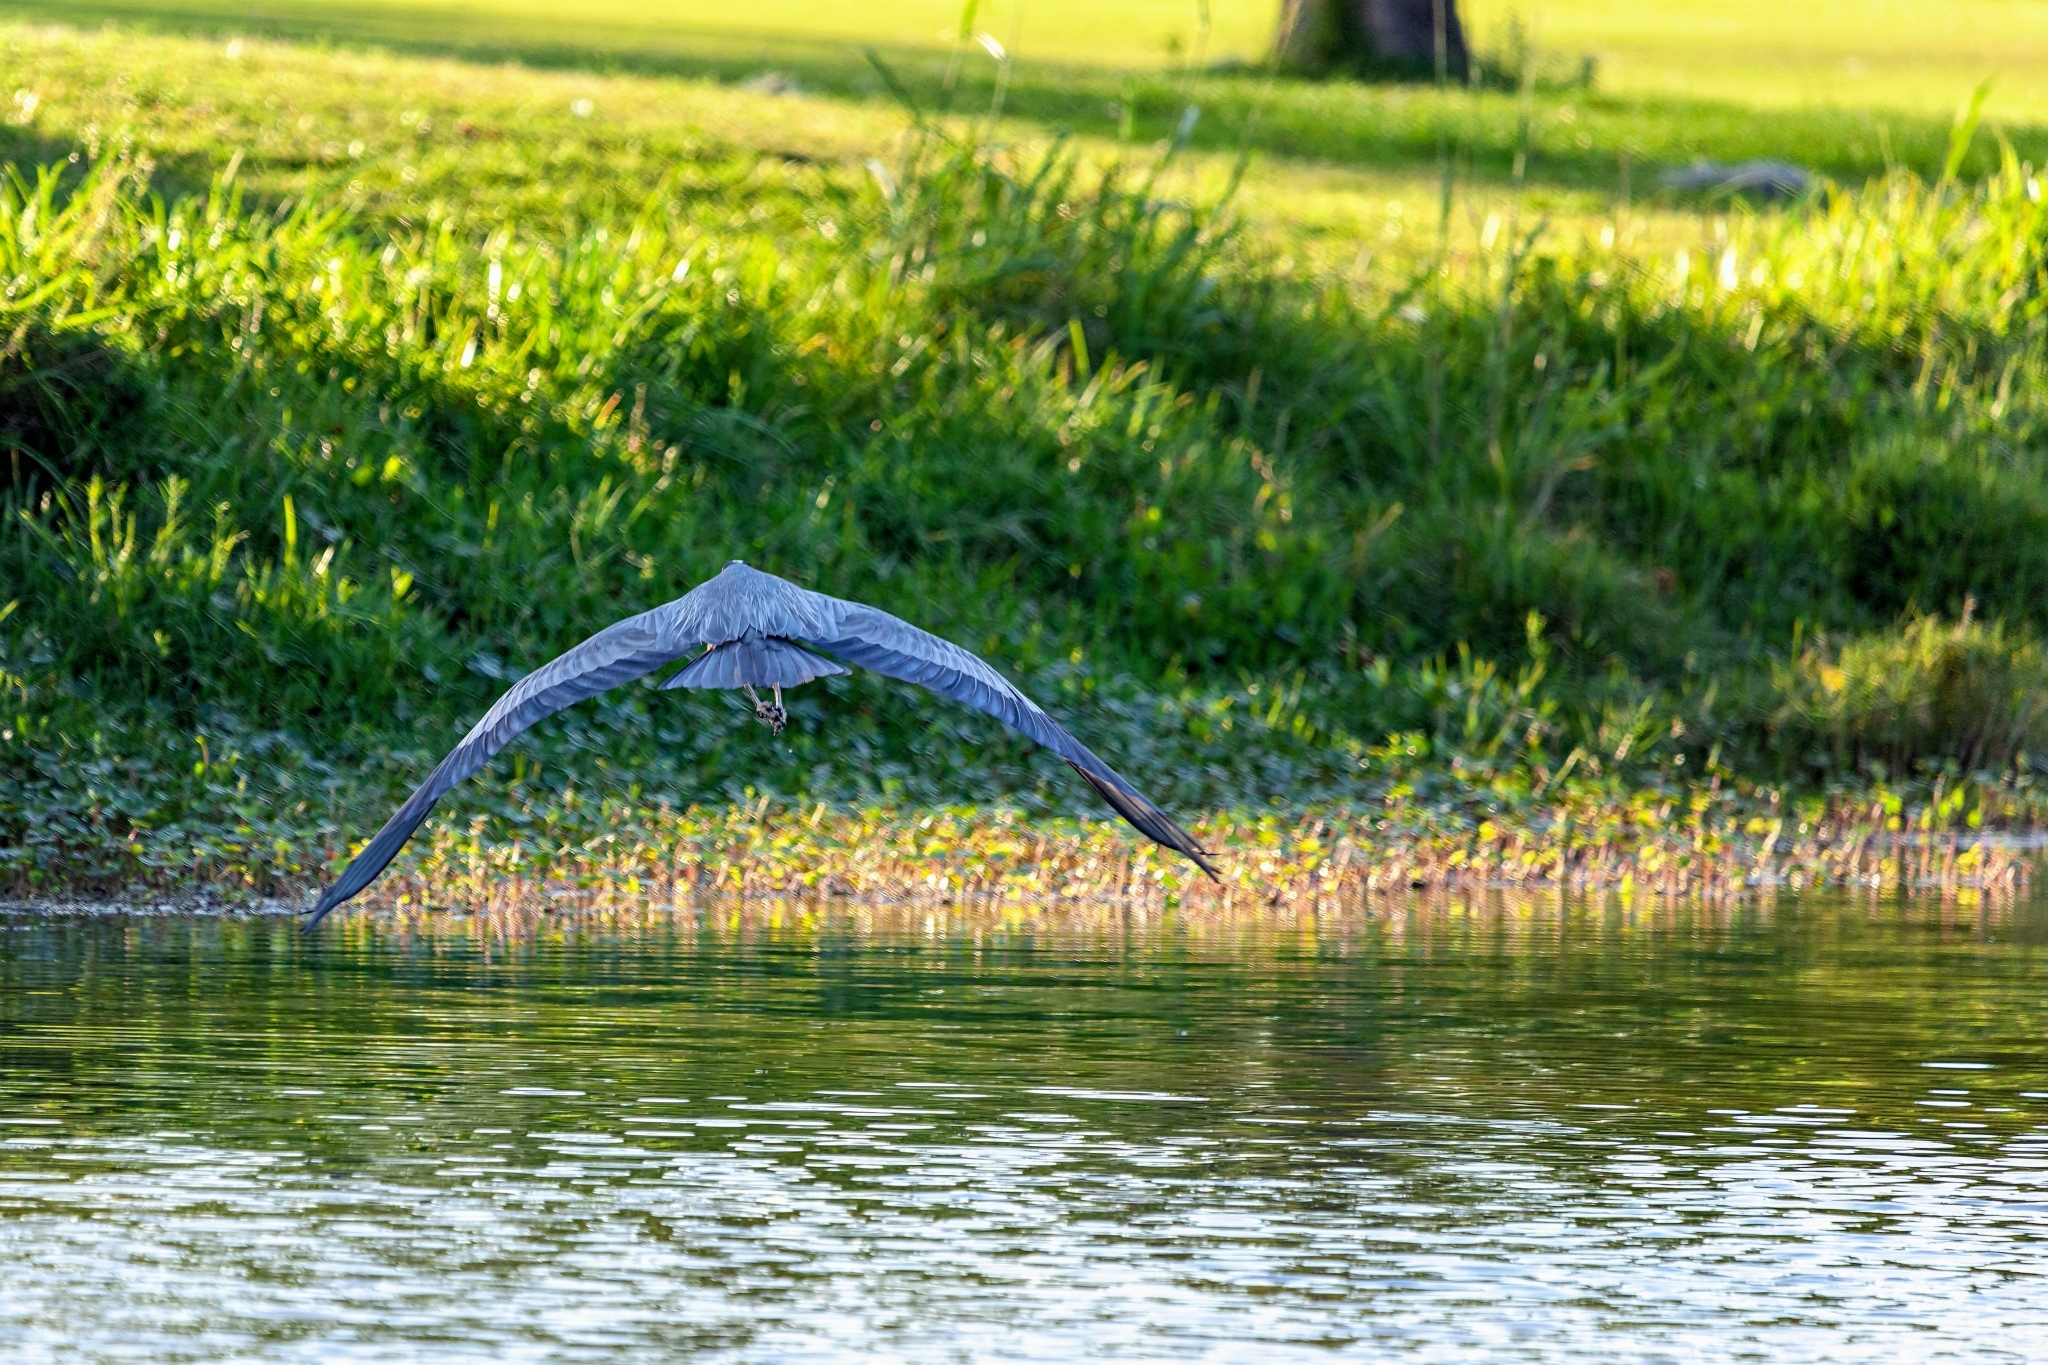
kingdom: Animalia
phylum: Chordata
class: Aves
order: Pelecaniformes
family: Ardeidae
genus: Ardea
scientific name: Ardea herodias
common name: Great blue heron
